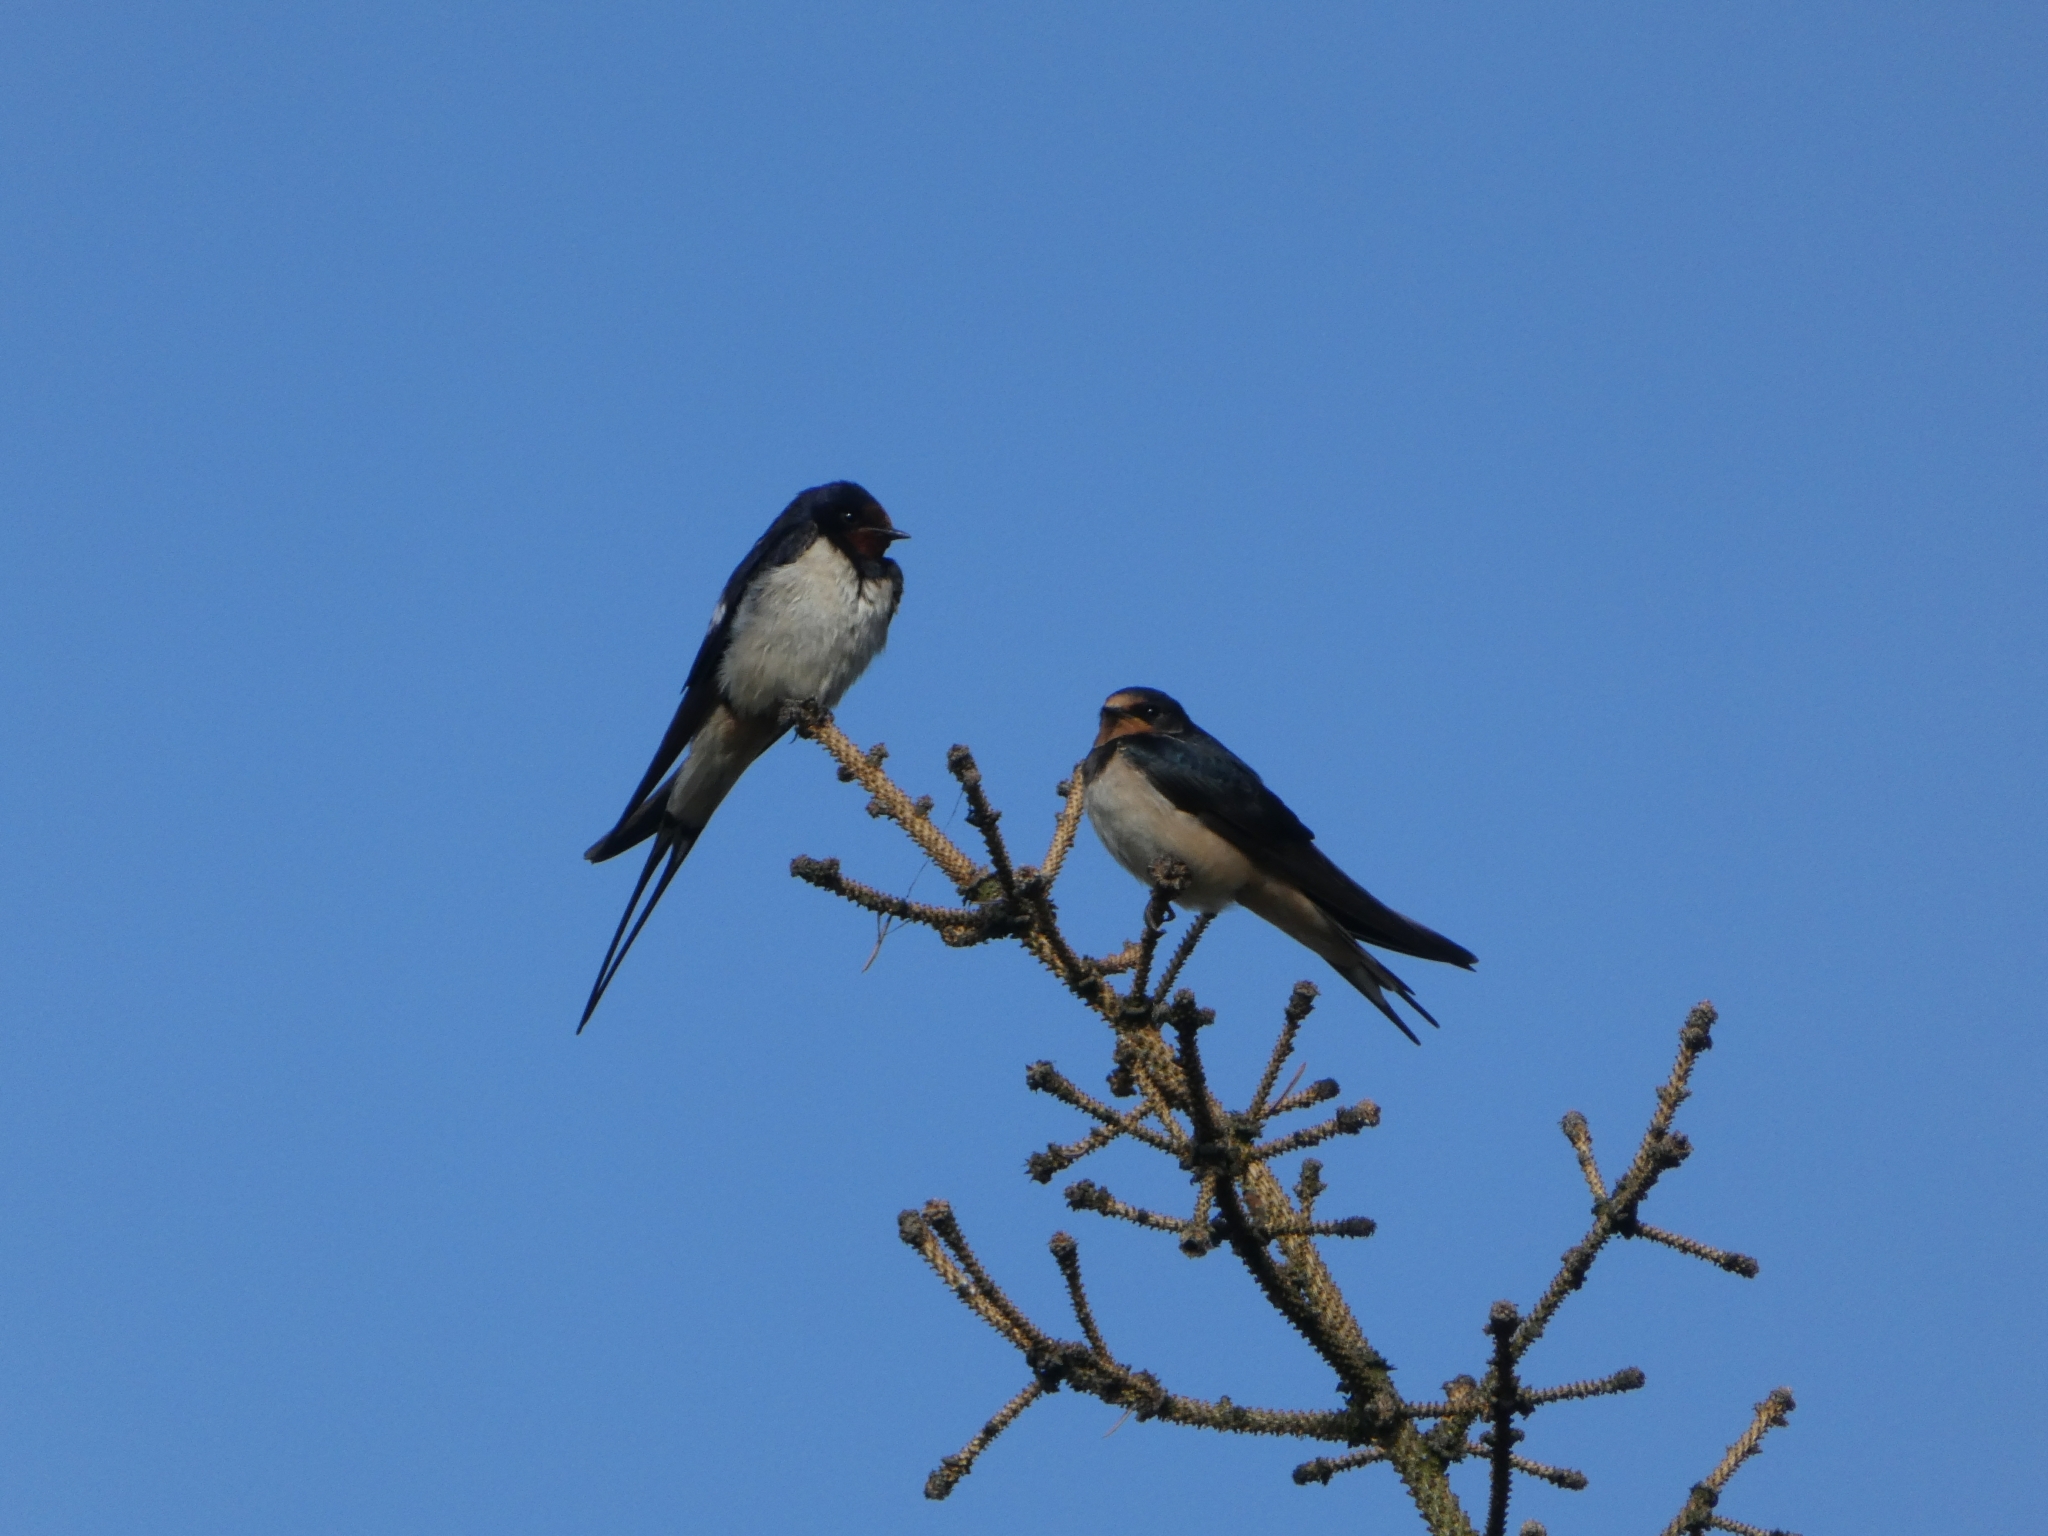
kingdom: Animalia
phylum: Chordata
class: Aves
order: Passeriformes
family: Hirundinidae
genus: Hirundo
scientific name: Hirundo rustica
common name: Barn swallow
